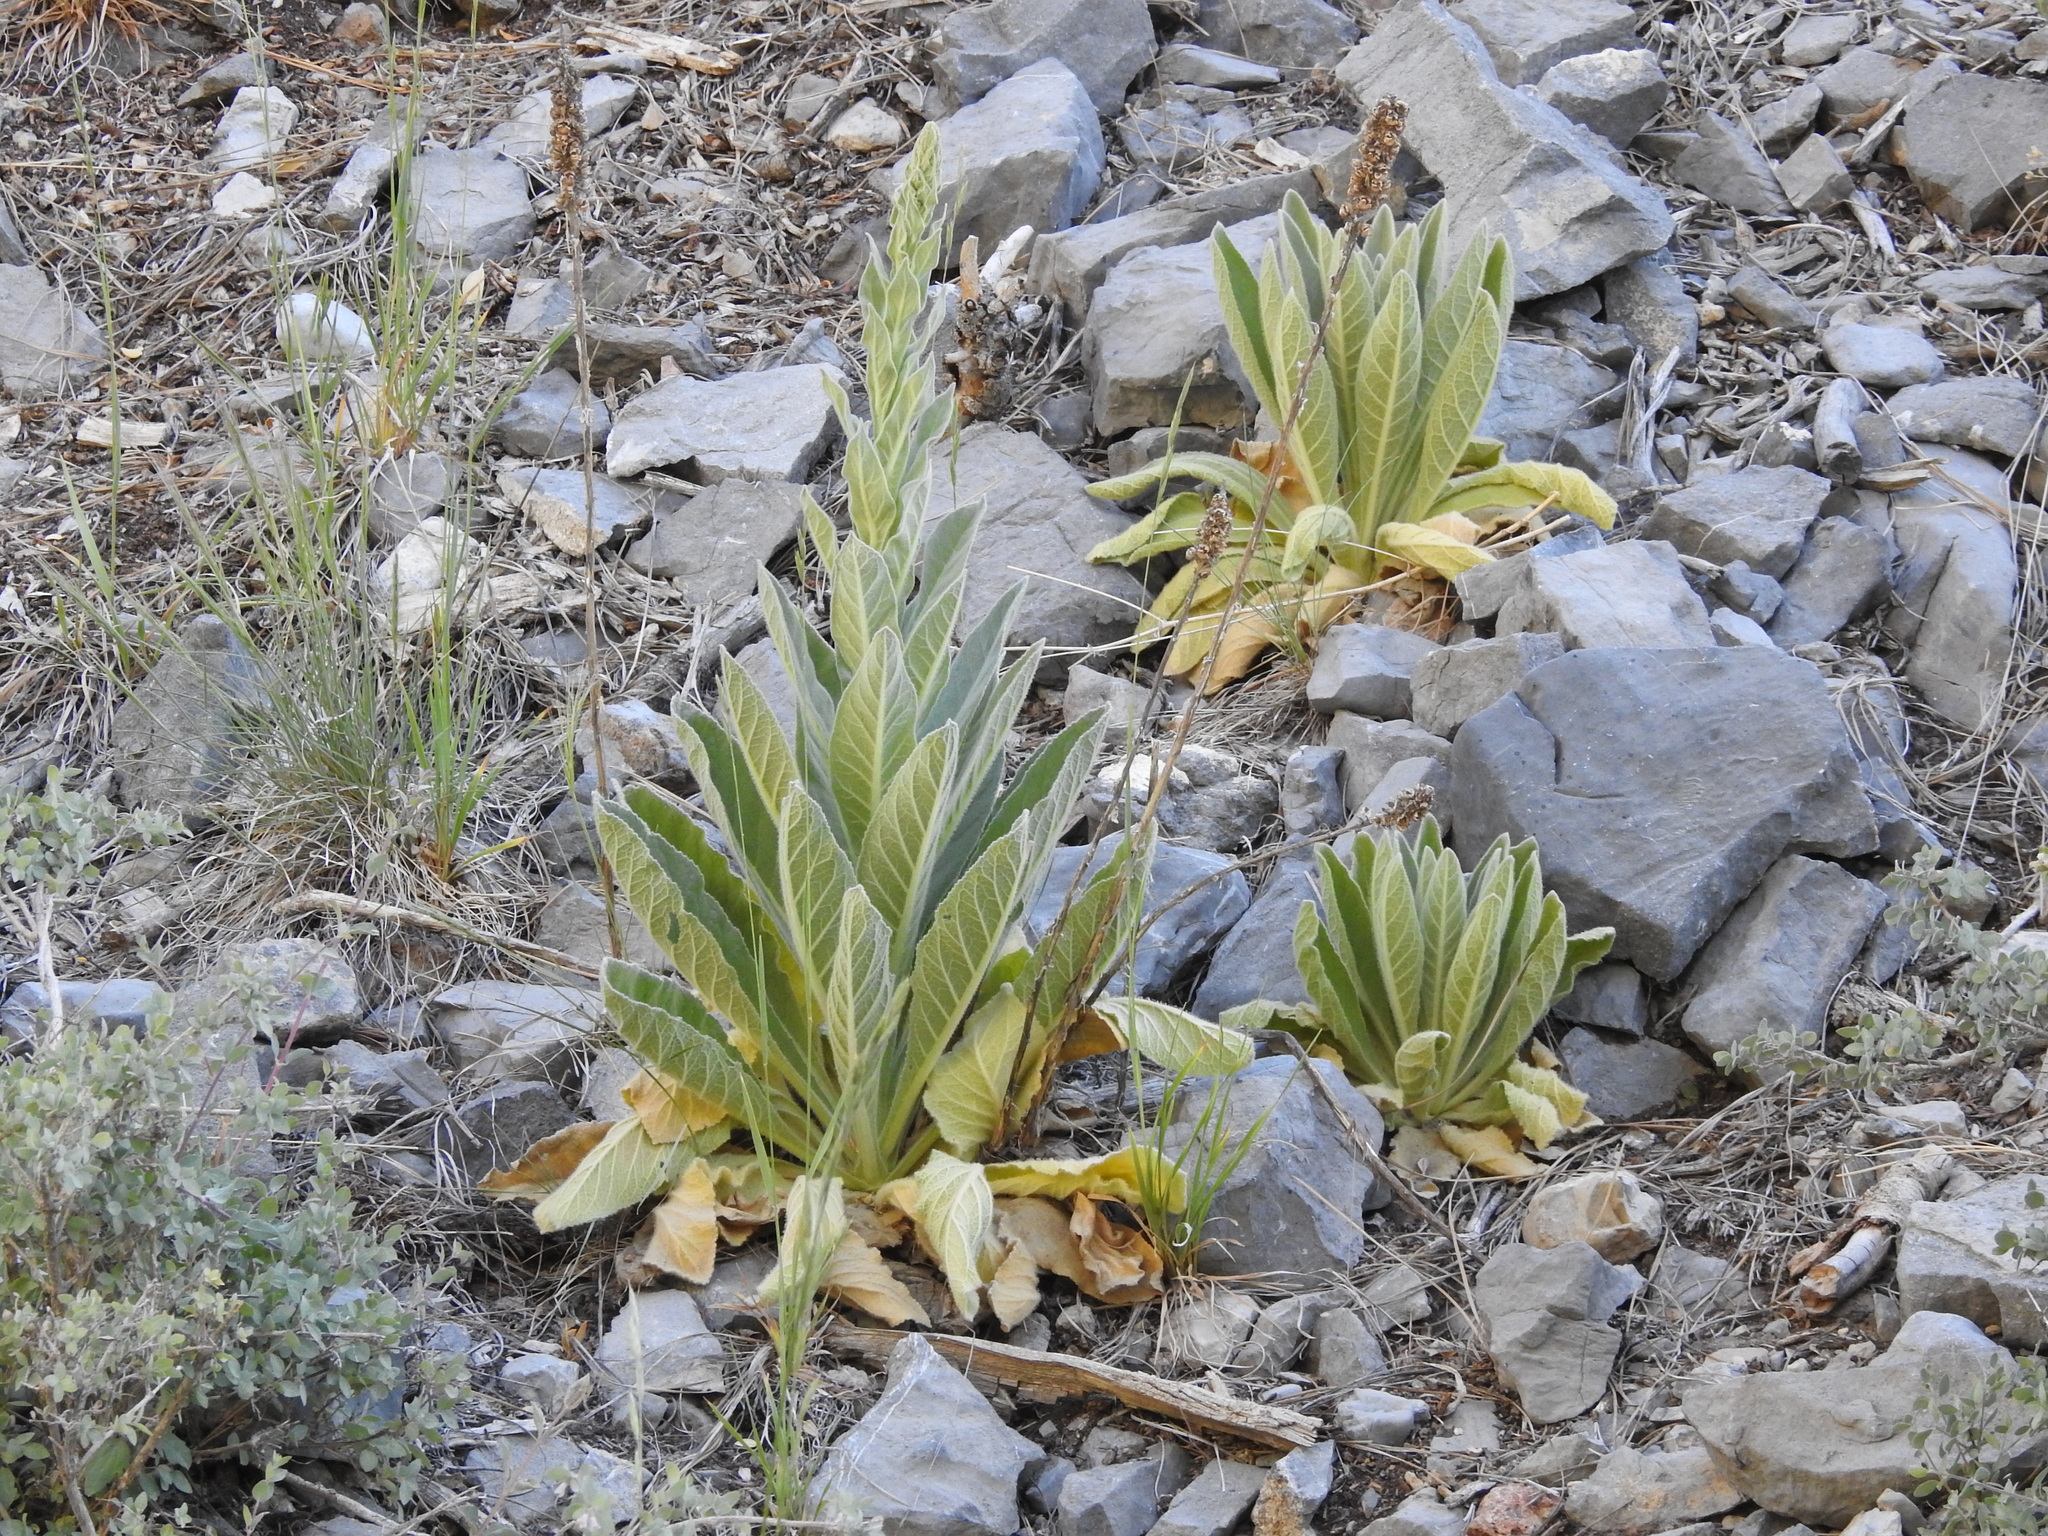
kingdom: Plantae
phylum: Tracheophyta
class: Magnoliopsida
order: Lamiales
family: Scrophulariaceae
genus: Verbascum
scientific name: Verbascum thapsus
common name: Common mullein
